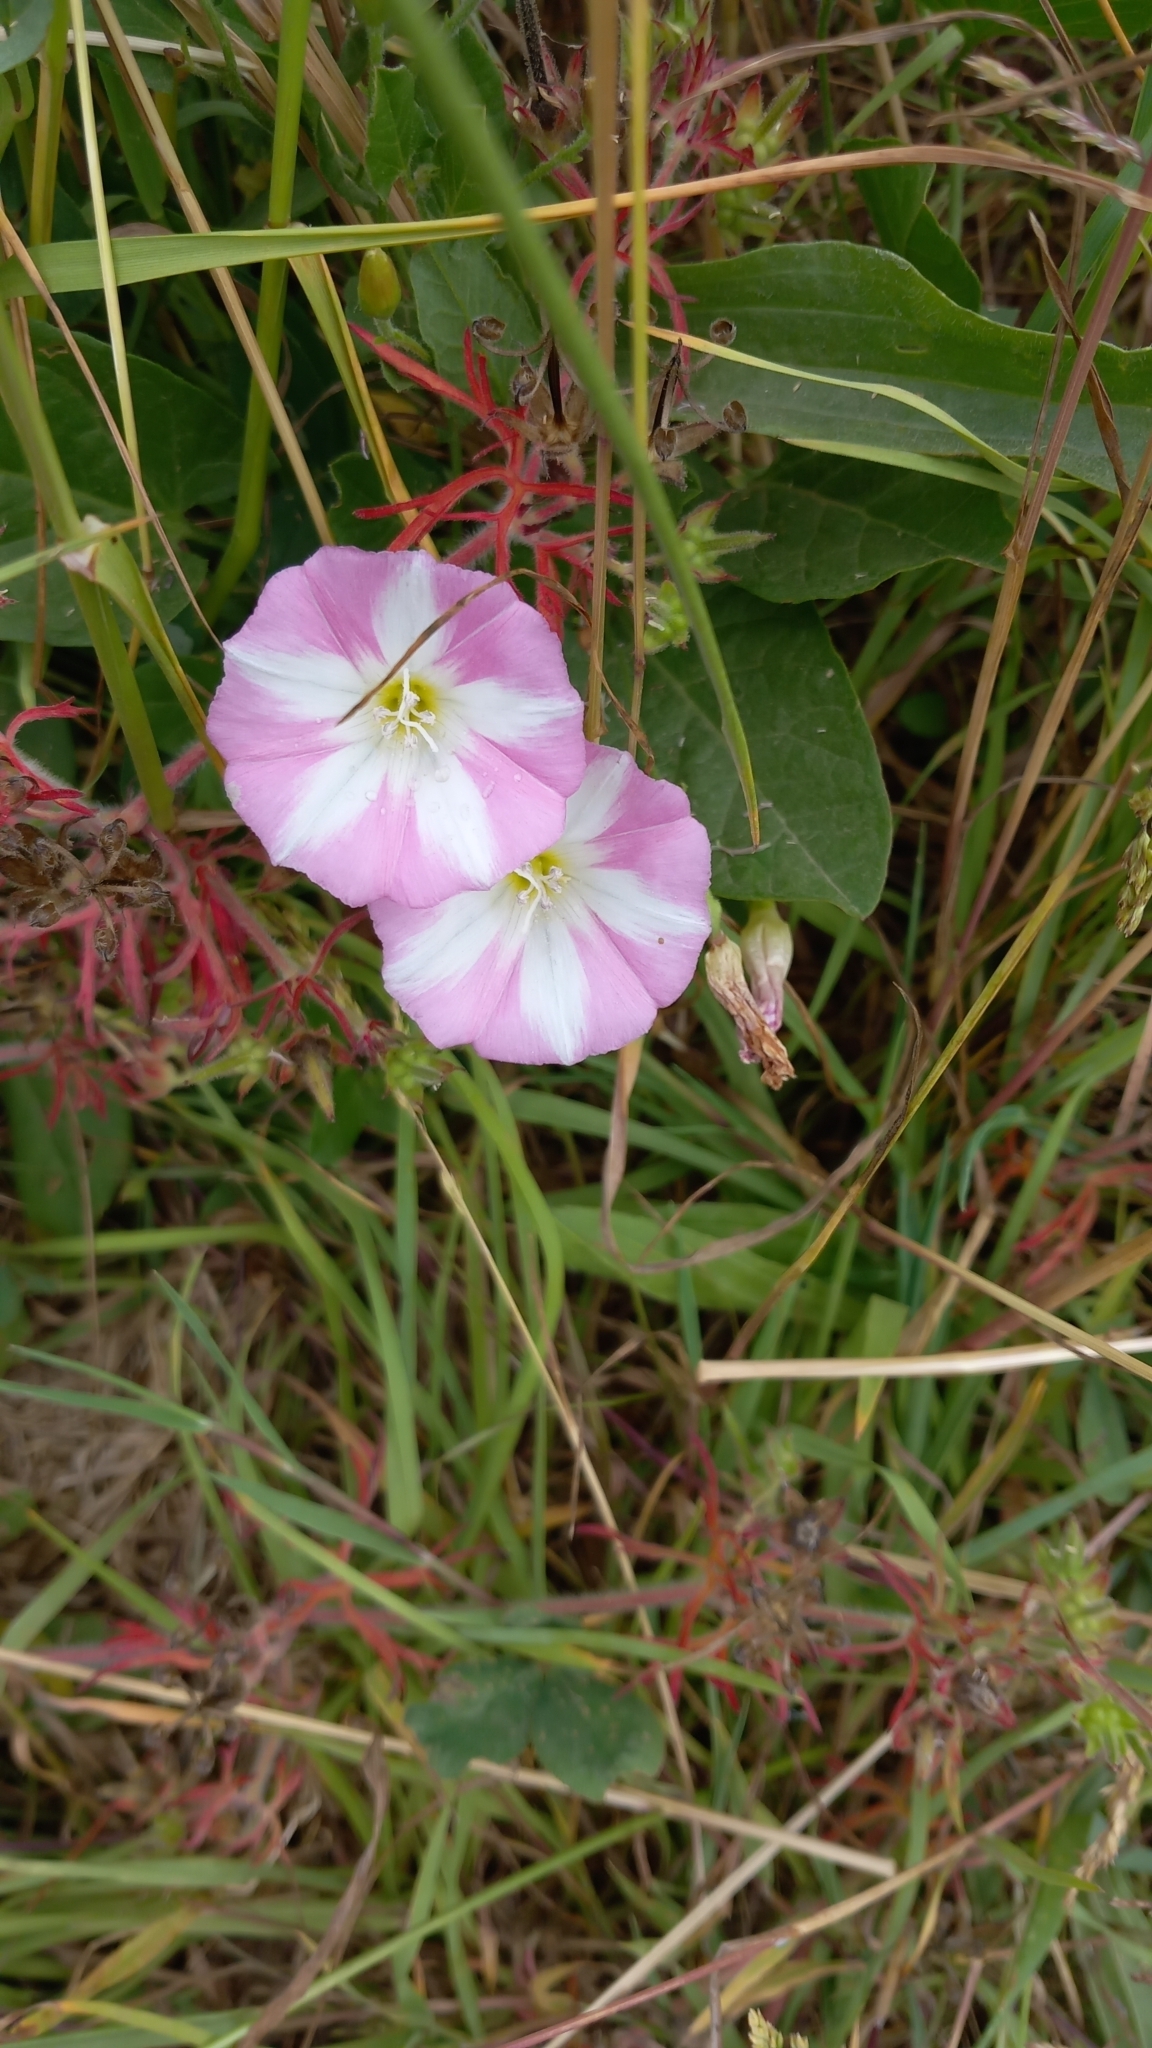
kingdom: Plantae
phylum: Tracheophyta
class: Magnoliopsida
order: Solanales
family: Convolvulaceae
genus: Convolvulus
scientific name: Convolvulus arvensis
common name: Field bindweed
